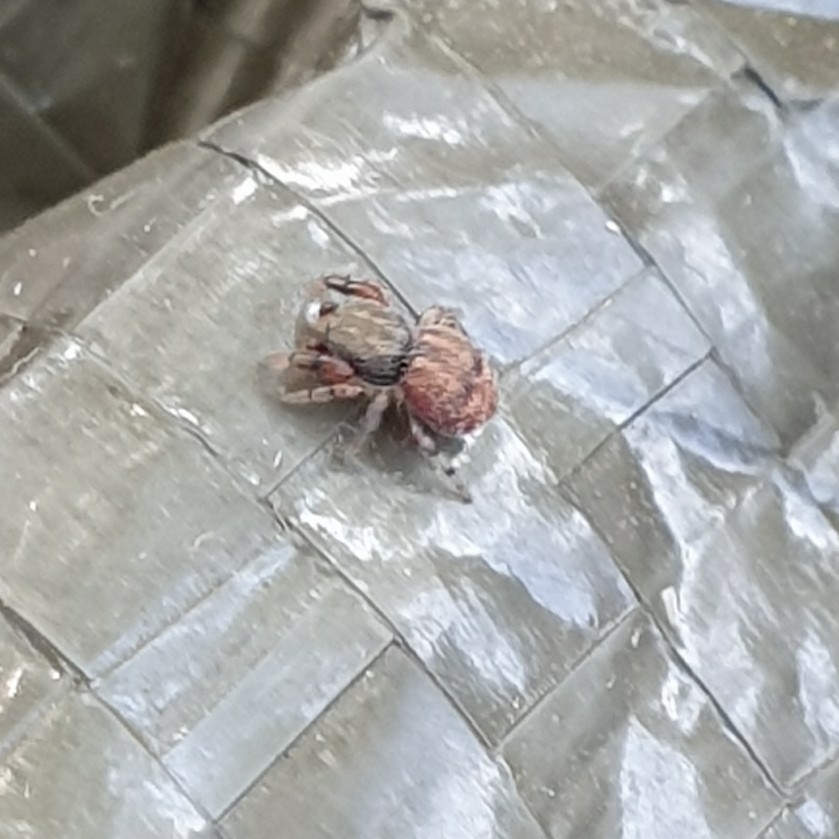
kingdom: Animalia
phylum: Arthropoda
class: Arachnida
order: Araneae
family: Salticidae
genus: Ballus
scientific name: Ballus chalybeius
